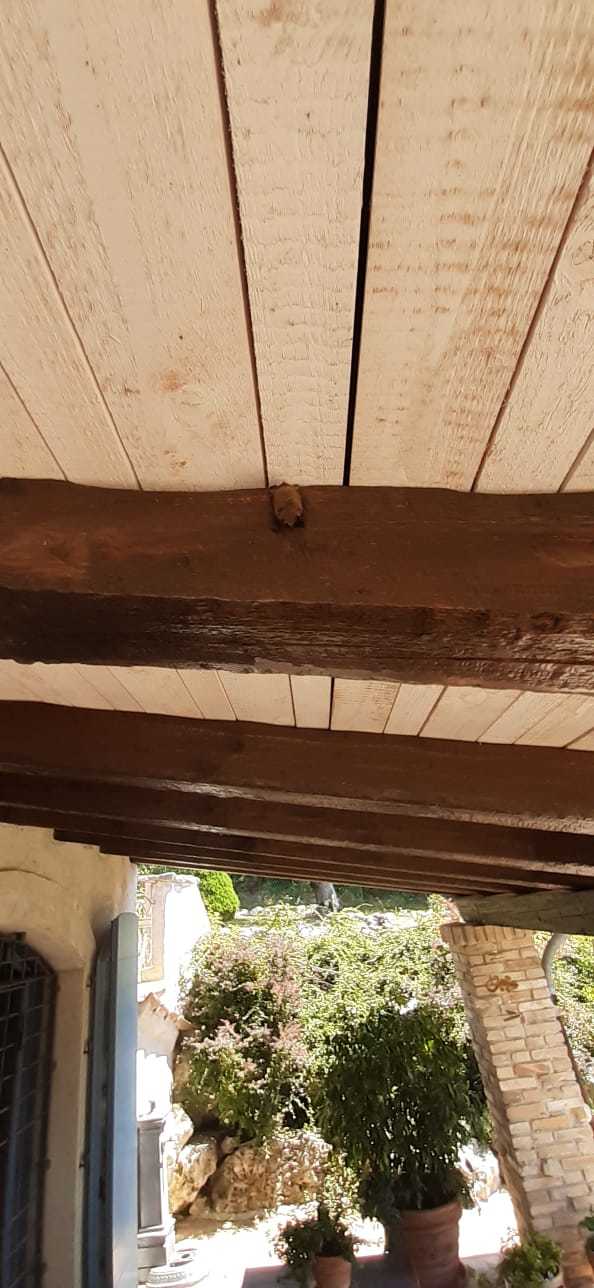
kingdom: Animalia
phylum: Chordata
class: Mammalia
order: Chiroptera
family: Vespertilionidae
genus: Myotis
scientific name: Myotis emarginatus
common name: Geoffroy's bat
